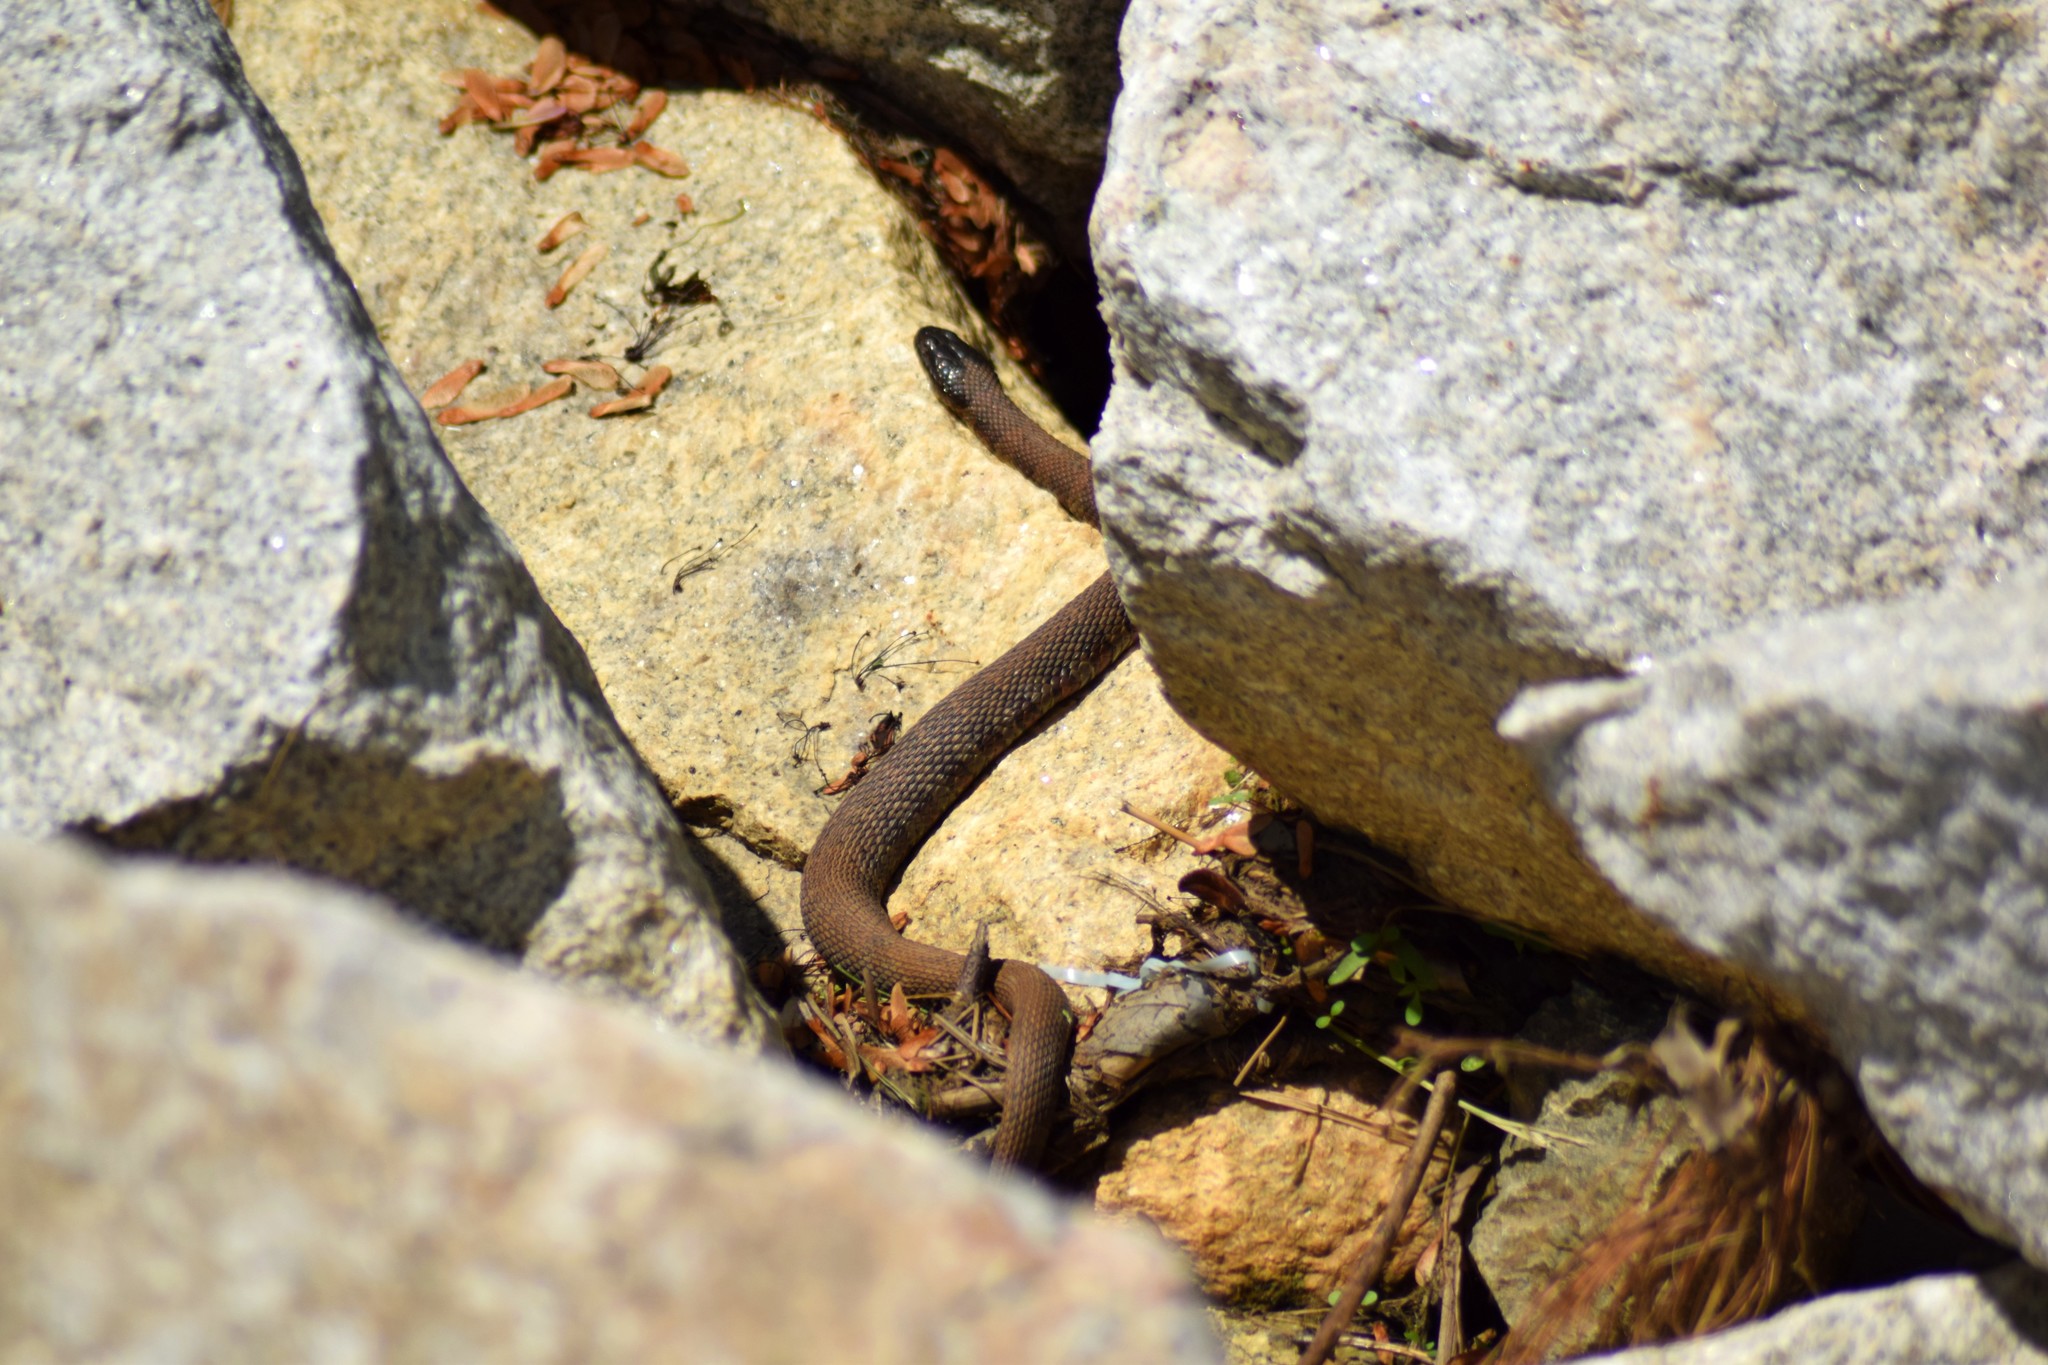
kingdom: Animalia
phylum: Chordata
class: Squamata
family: Colubridae
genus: Nerodia
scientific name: Nerodia sipedon
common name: Northern water snake
